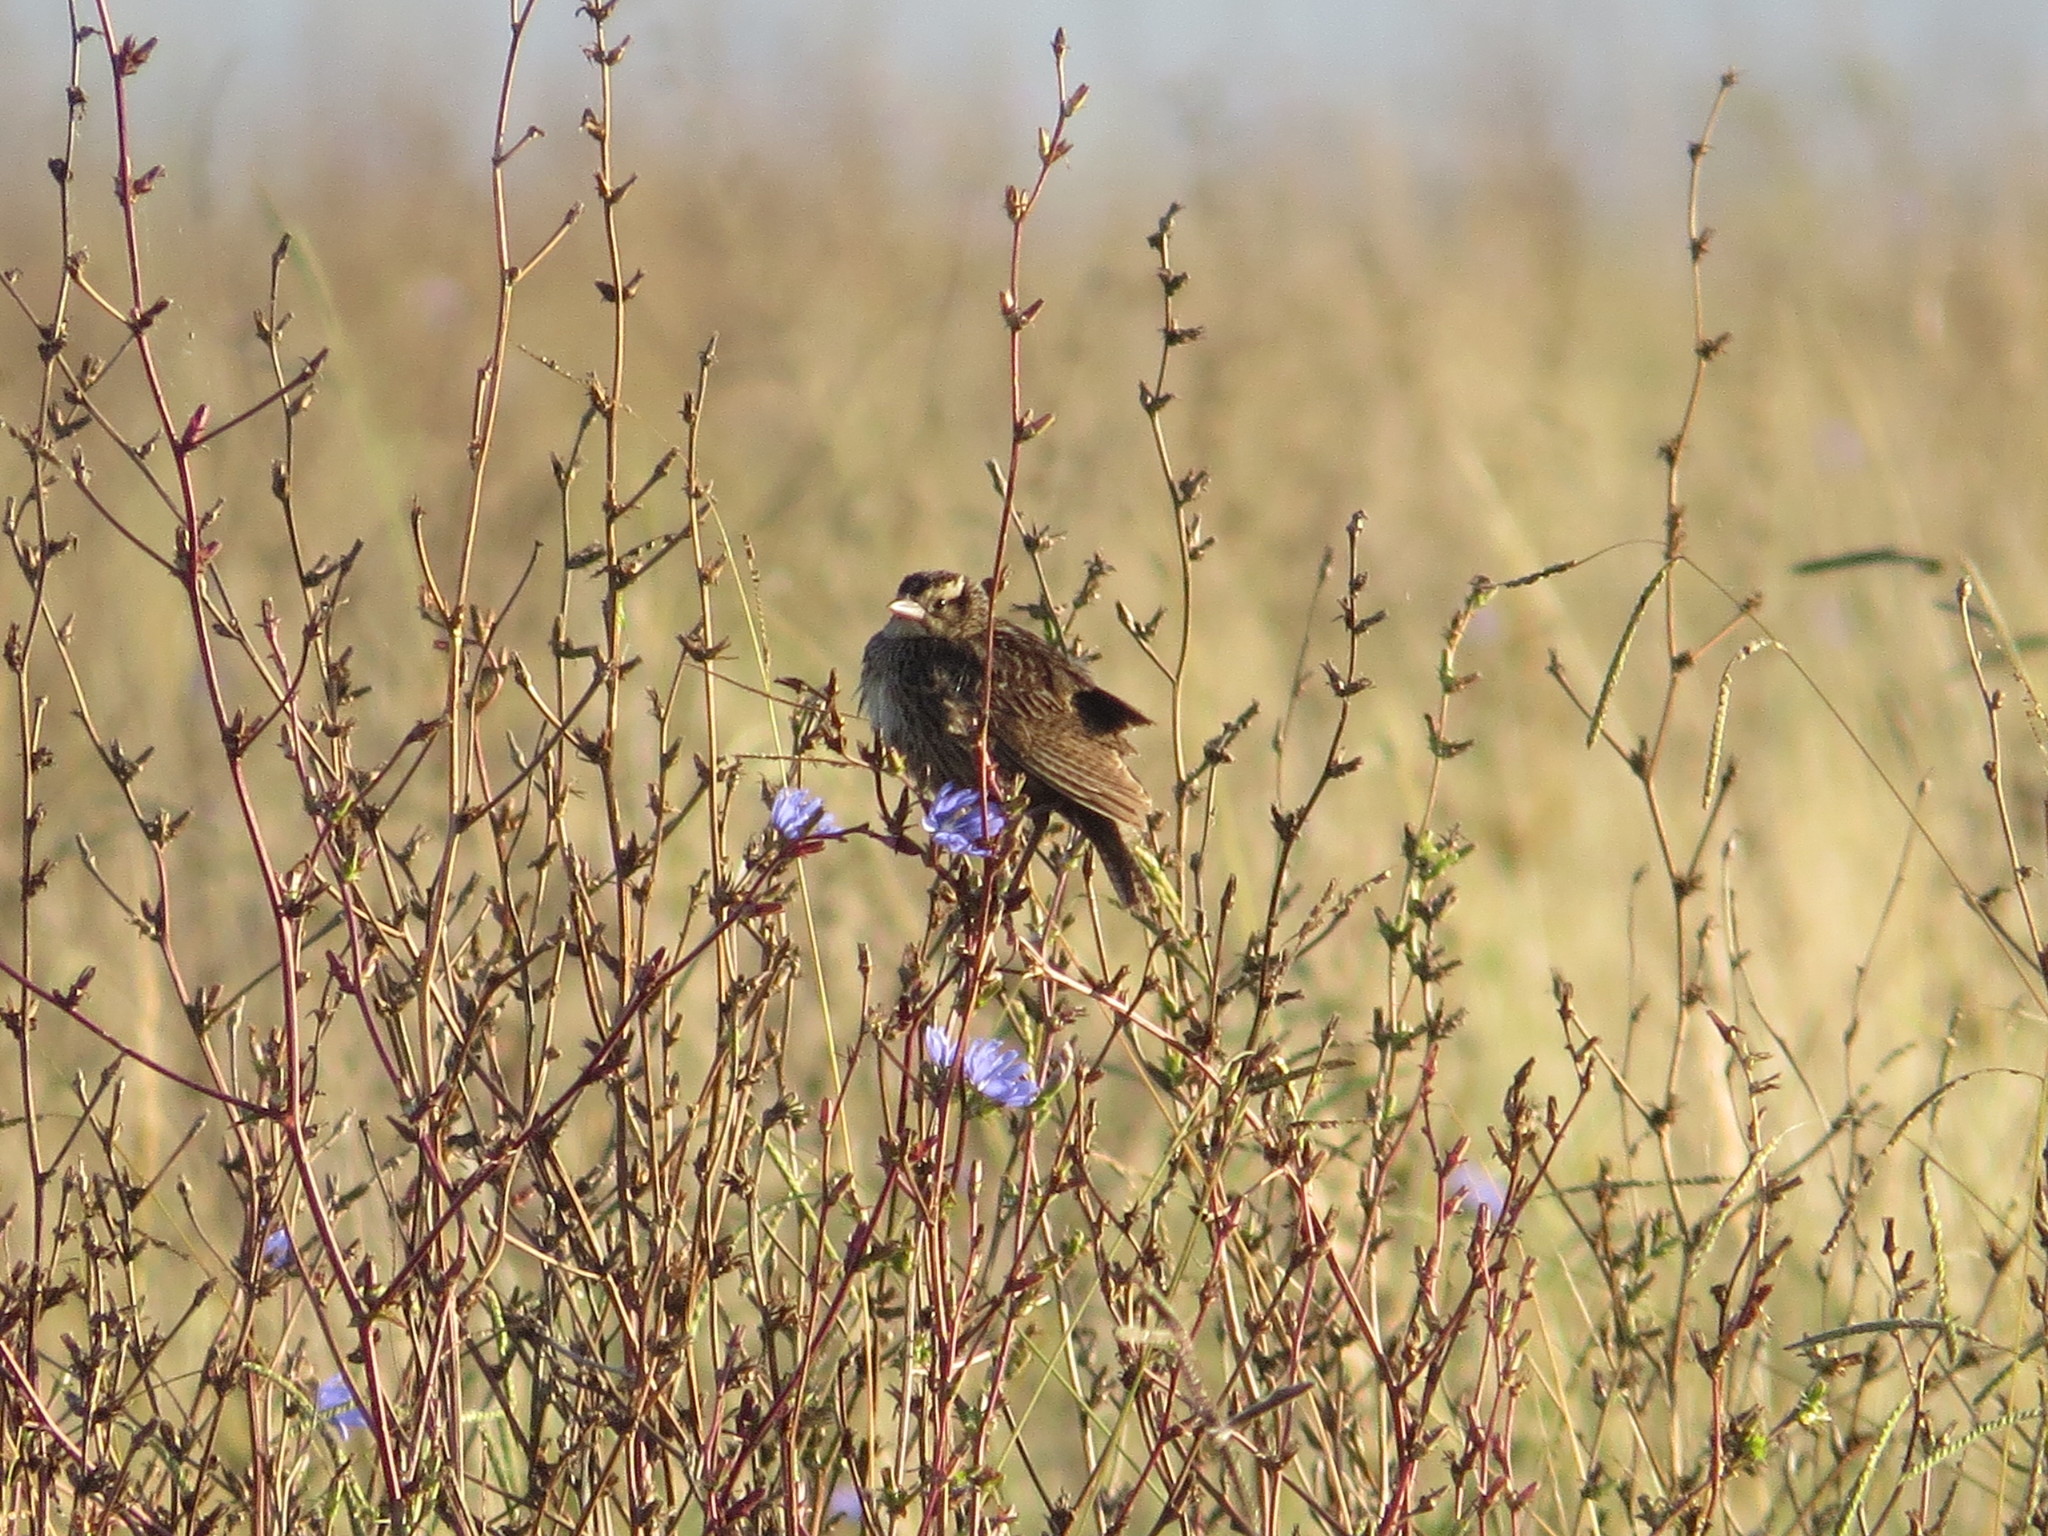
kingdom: Animalia
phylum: Chordata
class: Aves
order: Passeriformes
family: Icteridae
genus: Sturnella
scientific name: Sturnella superciliaris
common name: White-browed blackbird
